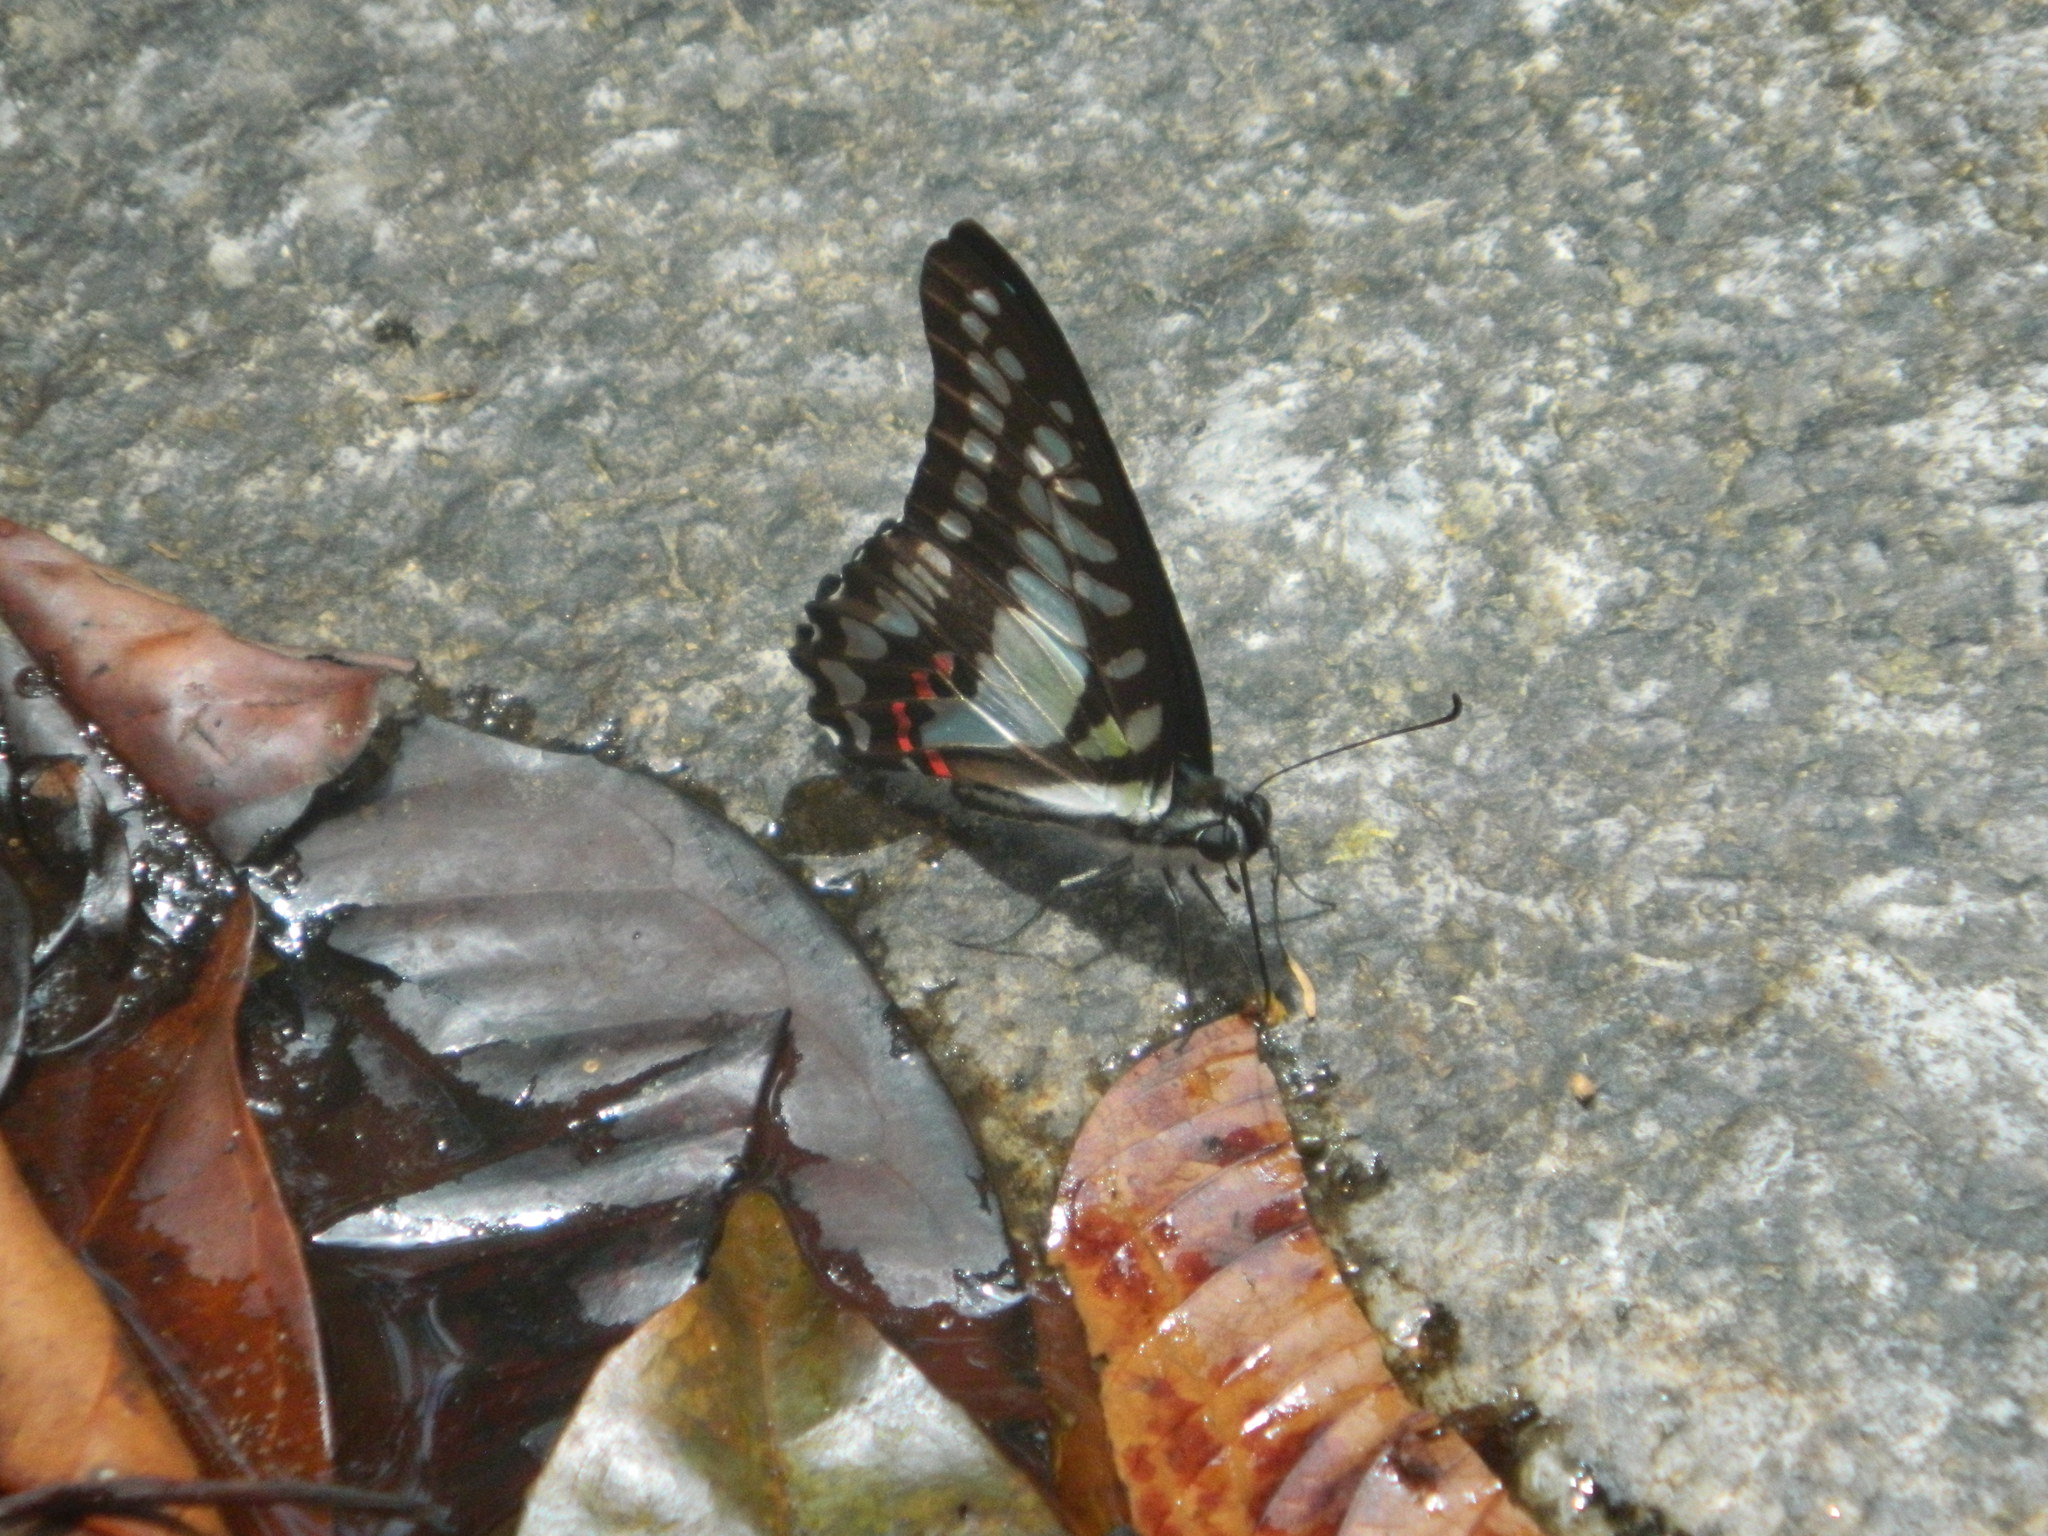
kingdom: Animalia
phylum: Arthropoda
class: Insecta
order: Lepidoptera
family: Papilionidae
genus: Graphium
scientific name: Graphium evemon
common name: Lesser jay
